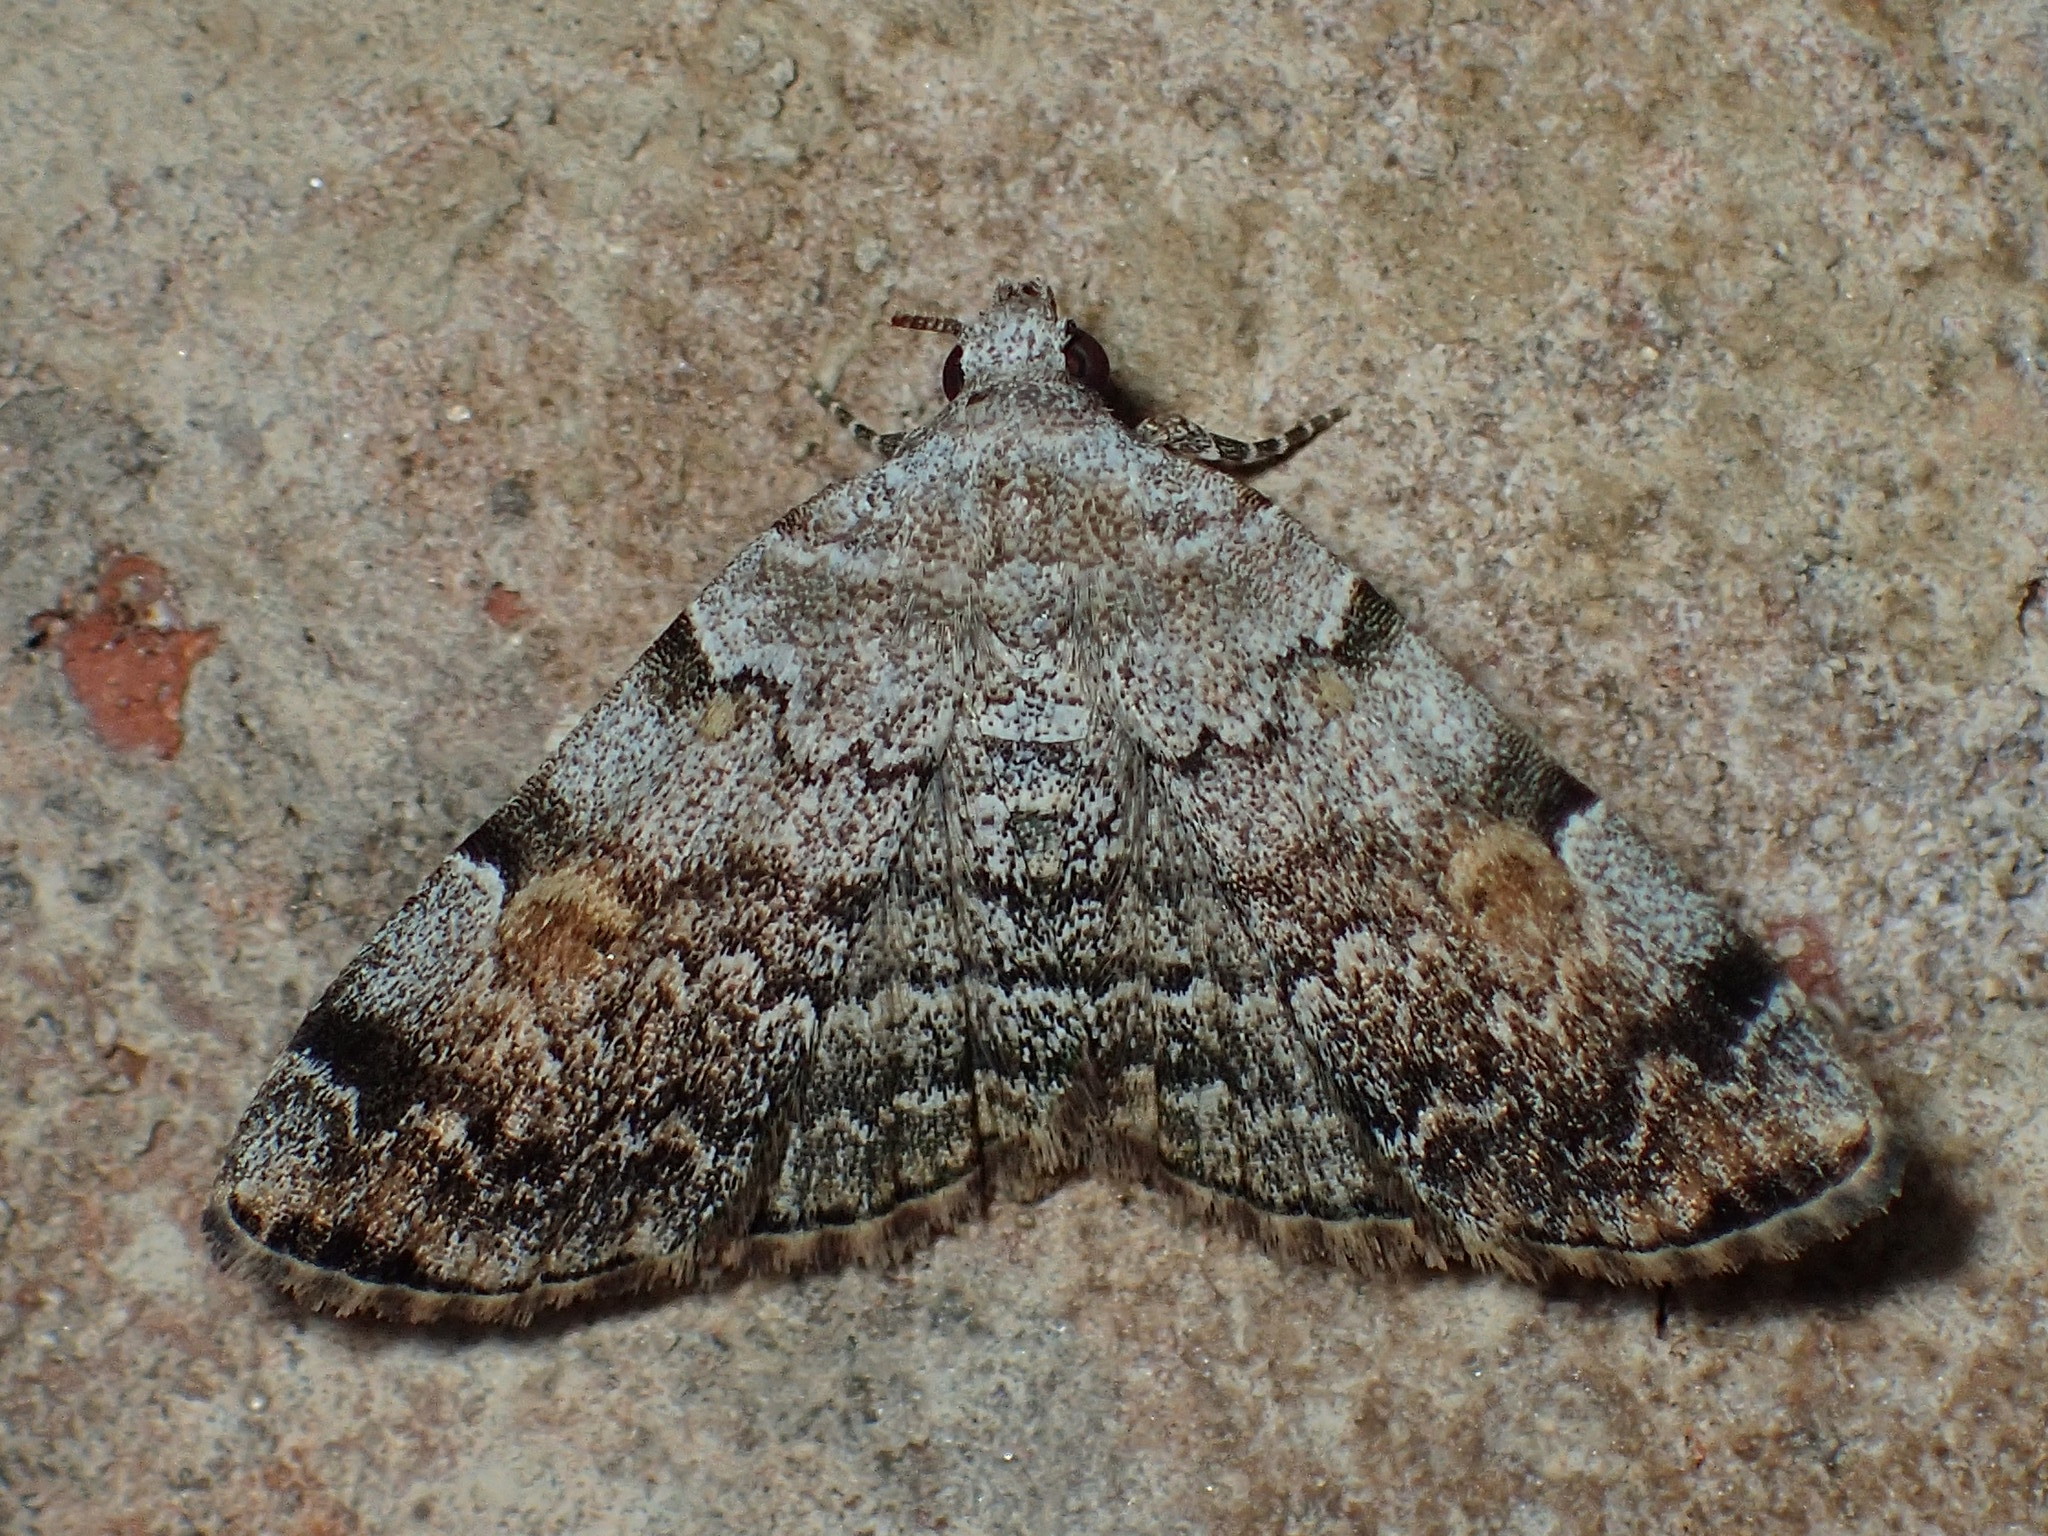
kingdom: Animalia
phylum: Arthropoda
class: Insecta
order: Lepidoptera
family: Erebidae
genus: Idia
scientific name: Idia americalis
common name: American idia moth
